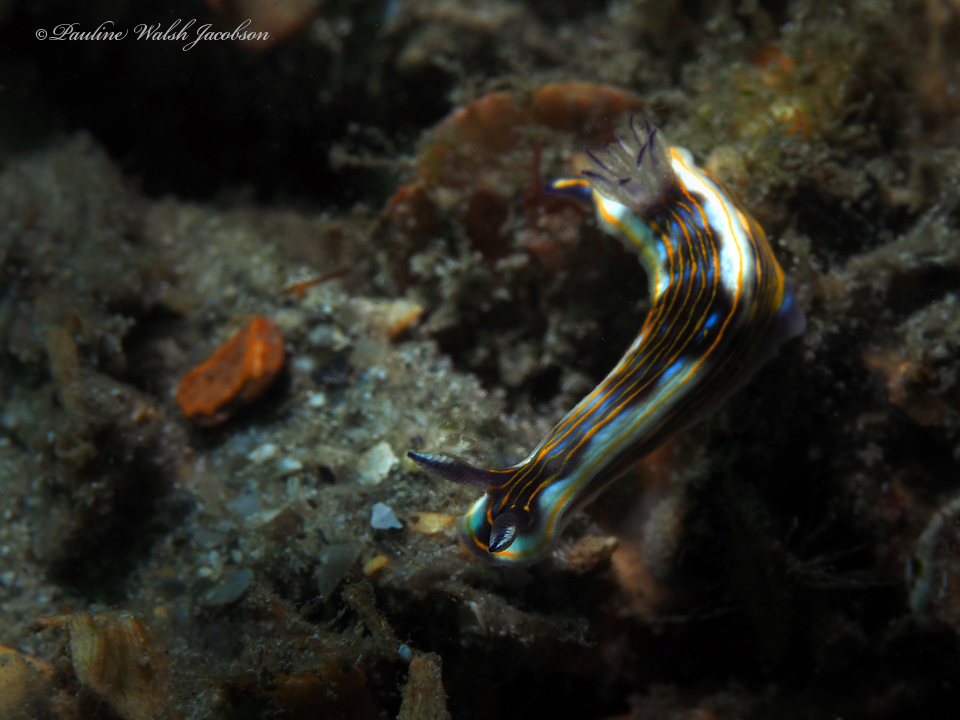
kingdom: Animalia
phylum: Mollusca
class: Gastropoda
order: Nudibranchia
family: Chromodorididae
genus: Felimare
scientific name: Felimare ruthae
